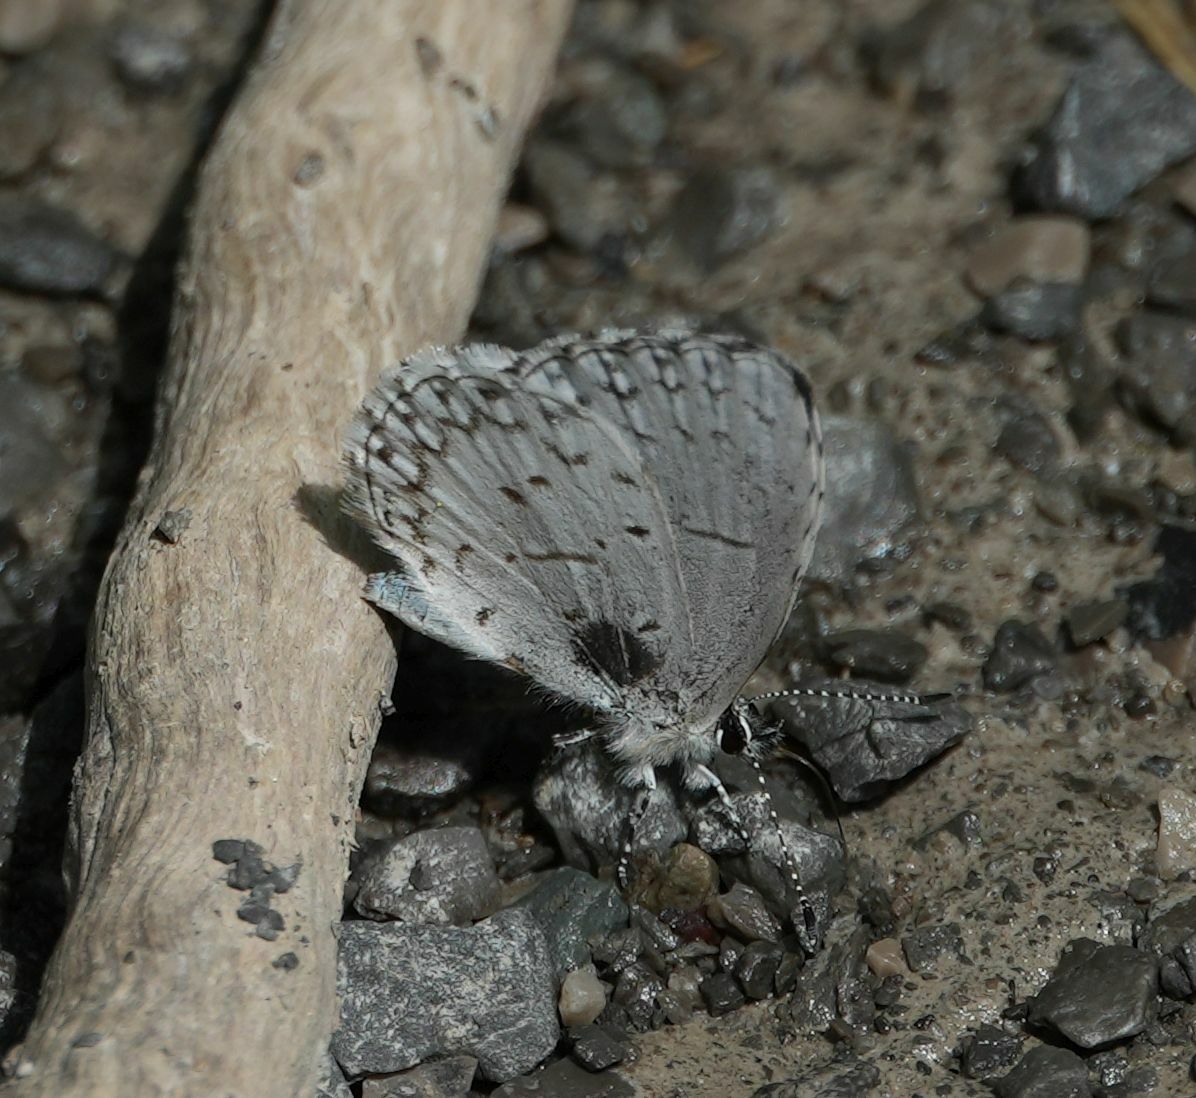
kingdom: Animalia
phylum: Arthropoda
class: Insecta
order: Lepidoptera
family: Lycaenidae
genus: Celastrina
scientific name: Celastrina lucia
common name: Lucia azure
